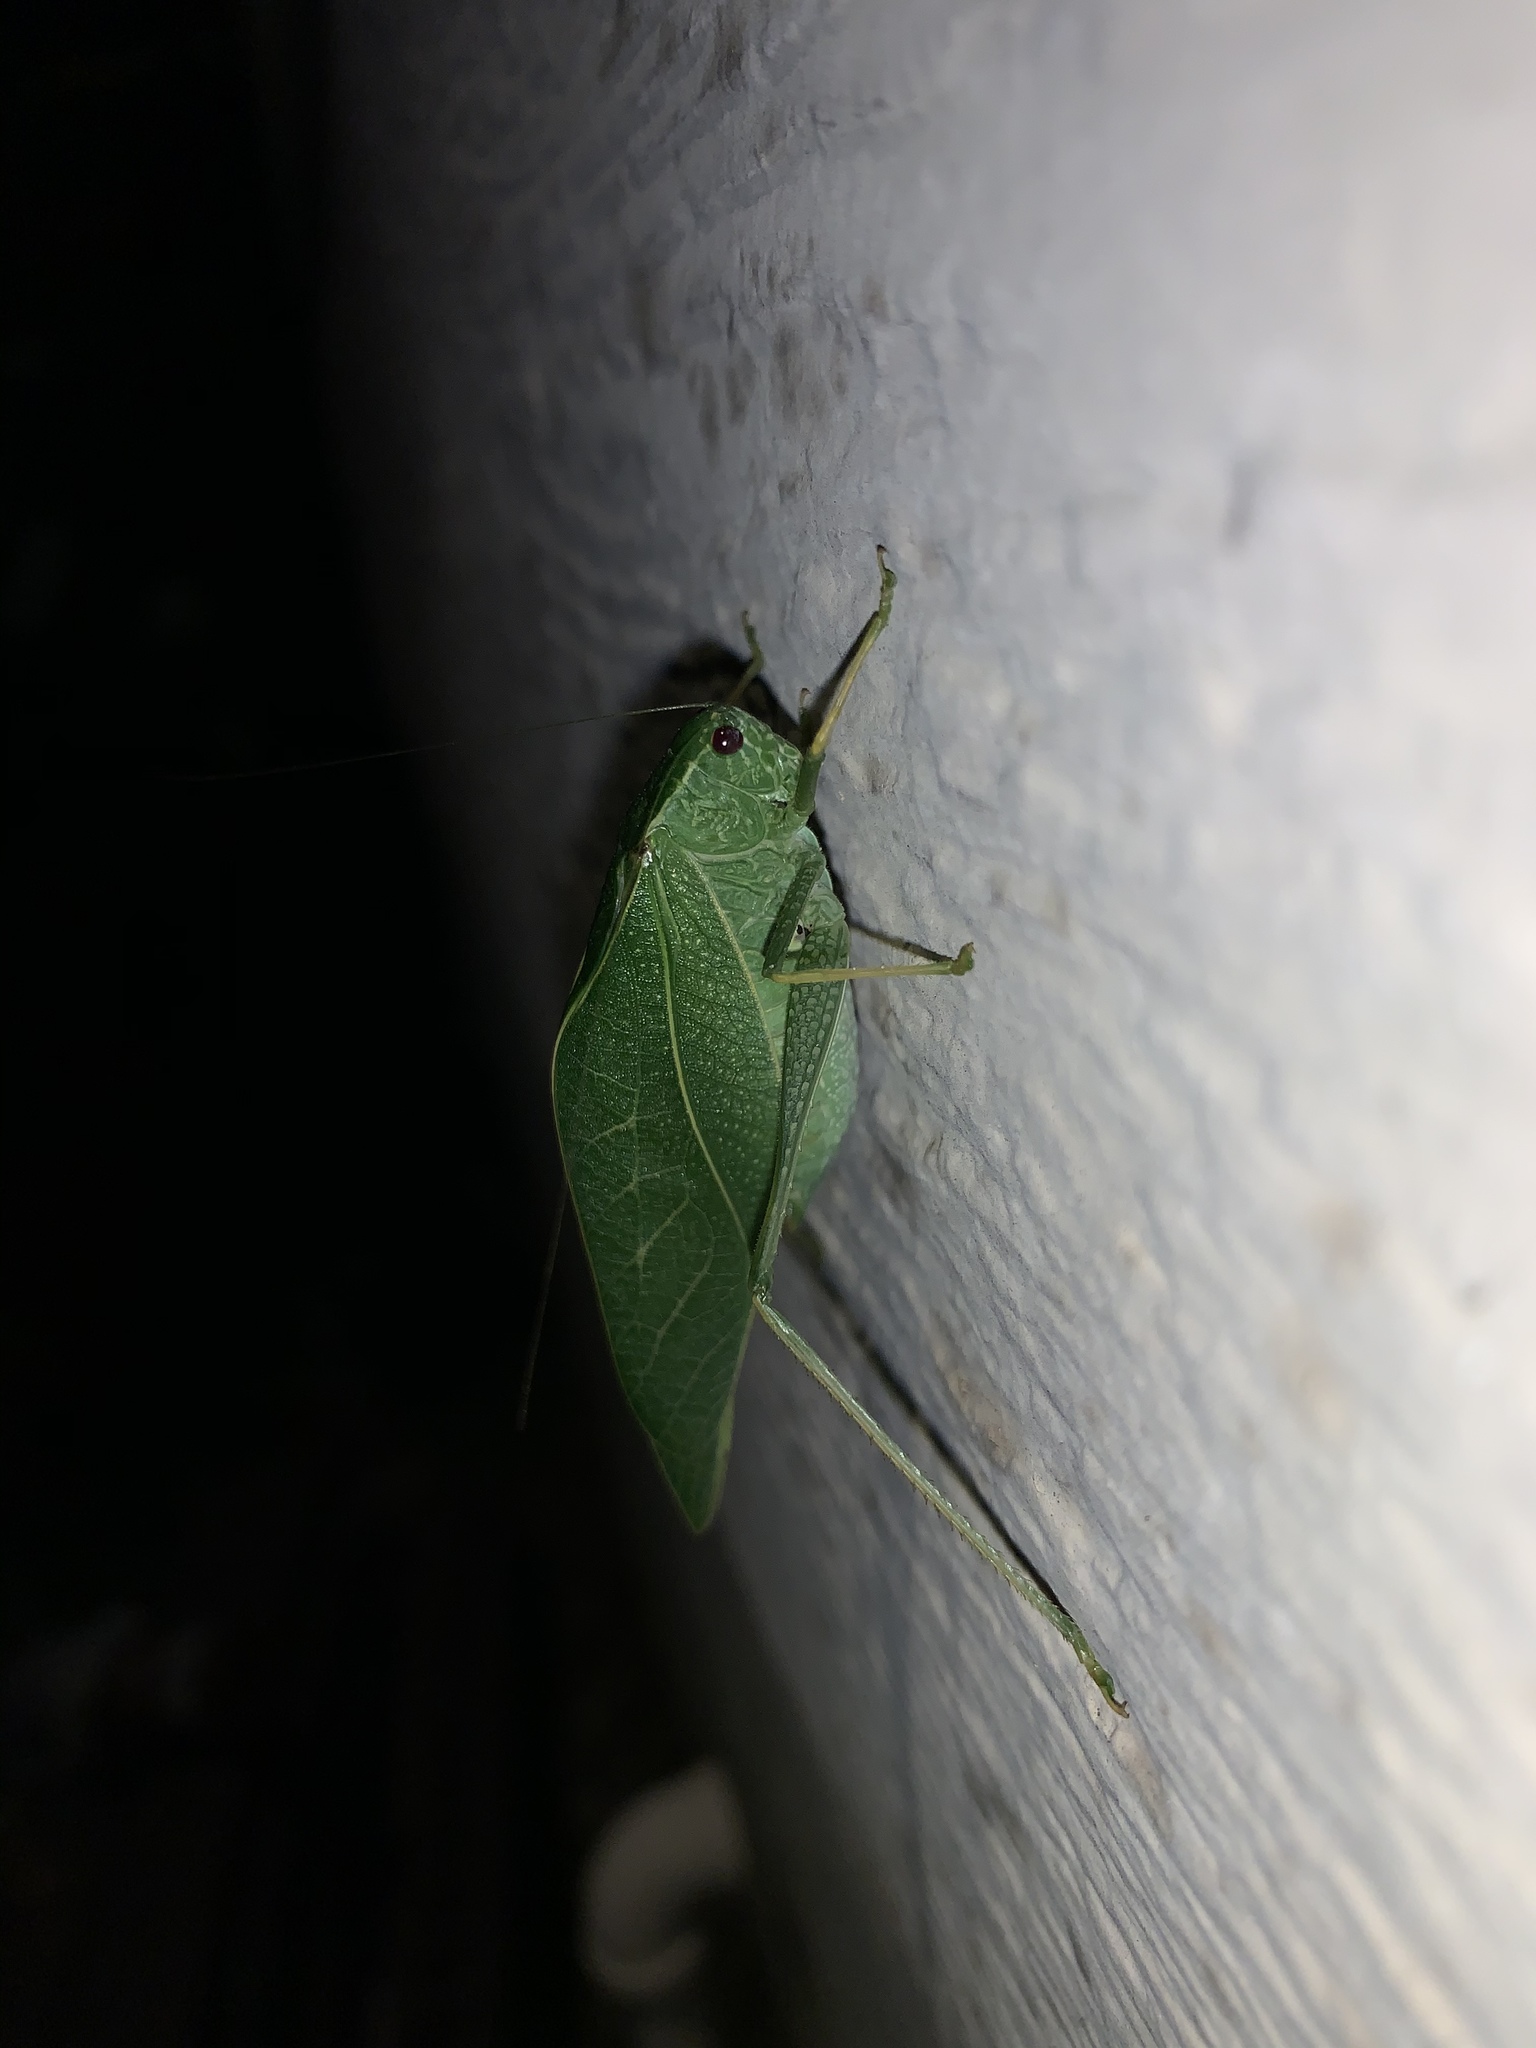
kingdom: Animalia
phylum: Arthropoda
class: Insecta
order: Orthoptera
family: Tettigoniidae
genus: Microcentrum
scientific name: Microcentrum rhombifolium
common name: Broad-winged katydid
